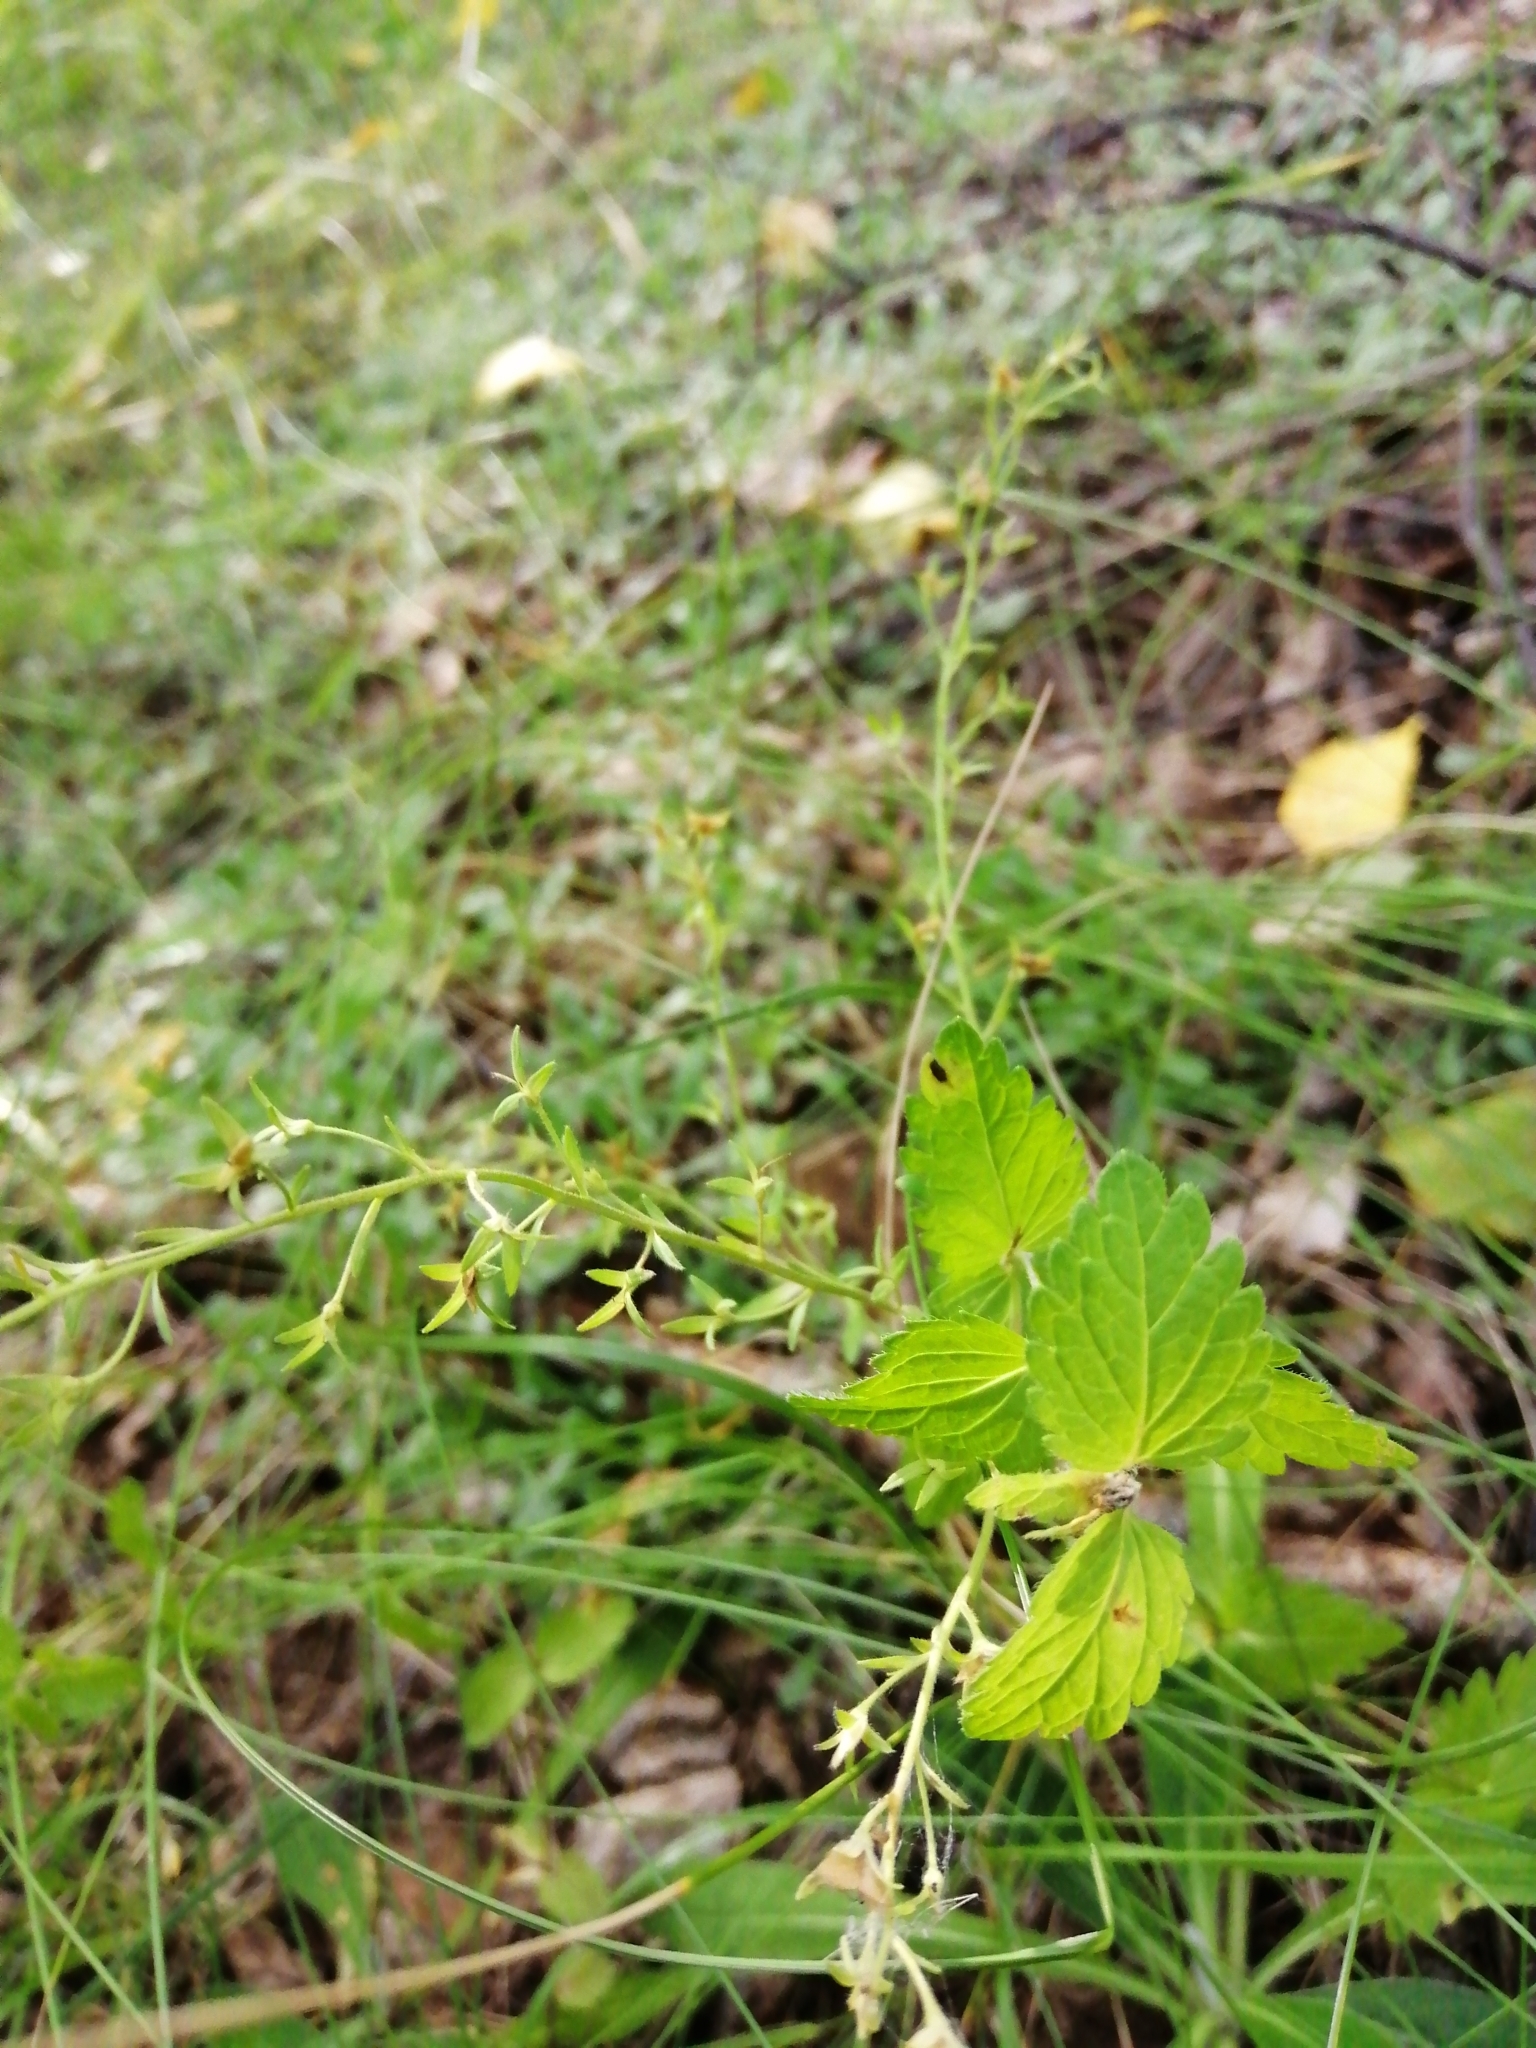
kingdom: Plantae
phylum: Tracheophyta
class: Magnoliopsida
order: Lamiales
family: Plantaginaceae
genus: Veronica
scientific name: Veronica chamaedrys
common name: Germander speedwell
